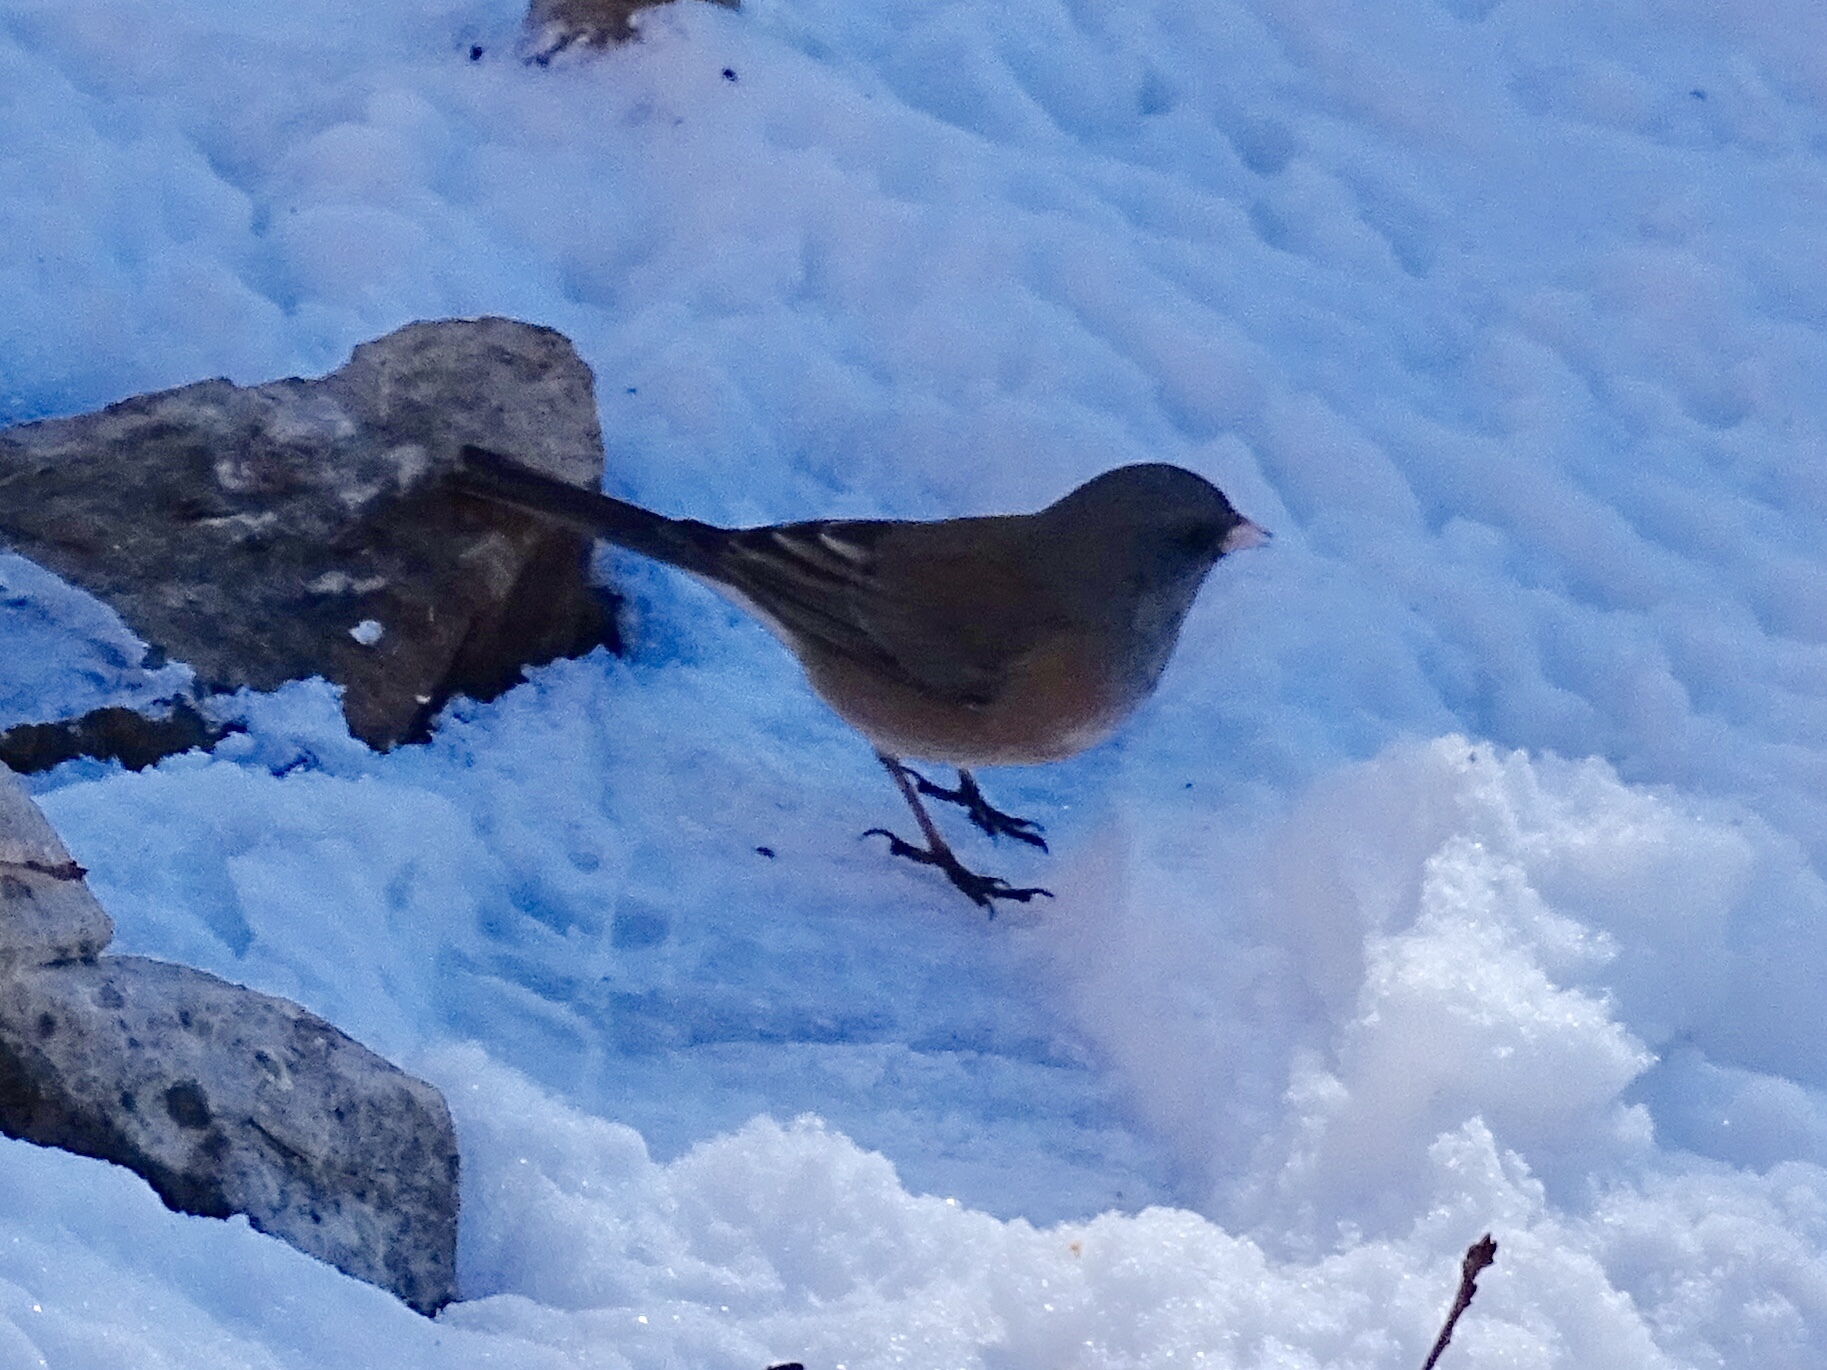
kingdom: Animalia
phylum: Chordata
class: Aves
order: Passeriformes
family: Passerellidae
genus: Junco
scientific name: Junco hyemalis
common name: Dark-eyed junco
